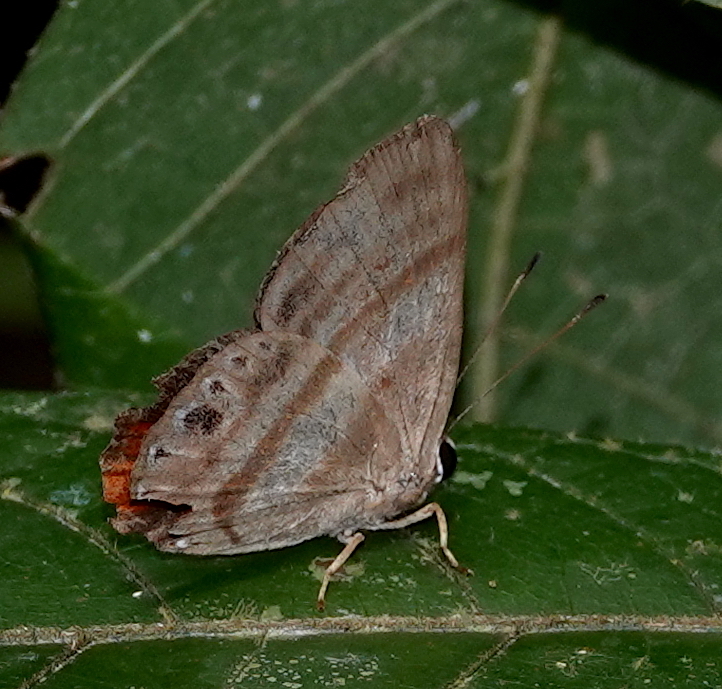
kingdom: Animalia
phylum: Arthropoda
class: Insecta
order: Lepidoptera
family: Riodinidae
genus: Pelolasia
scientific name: Pelolasia
